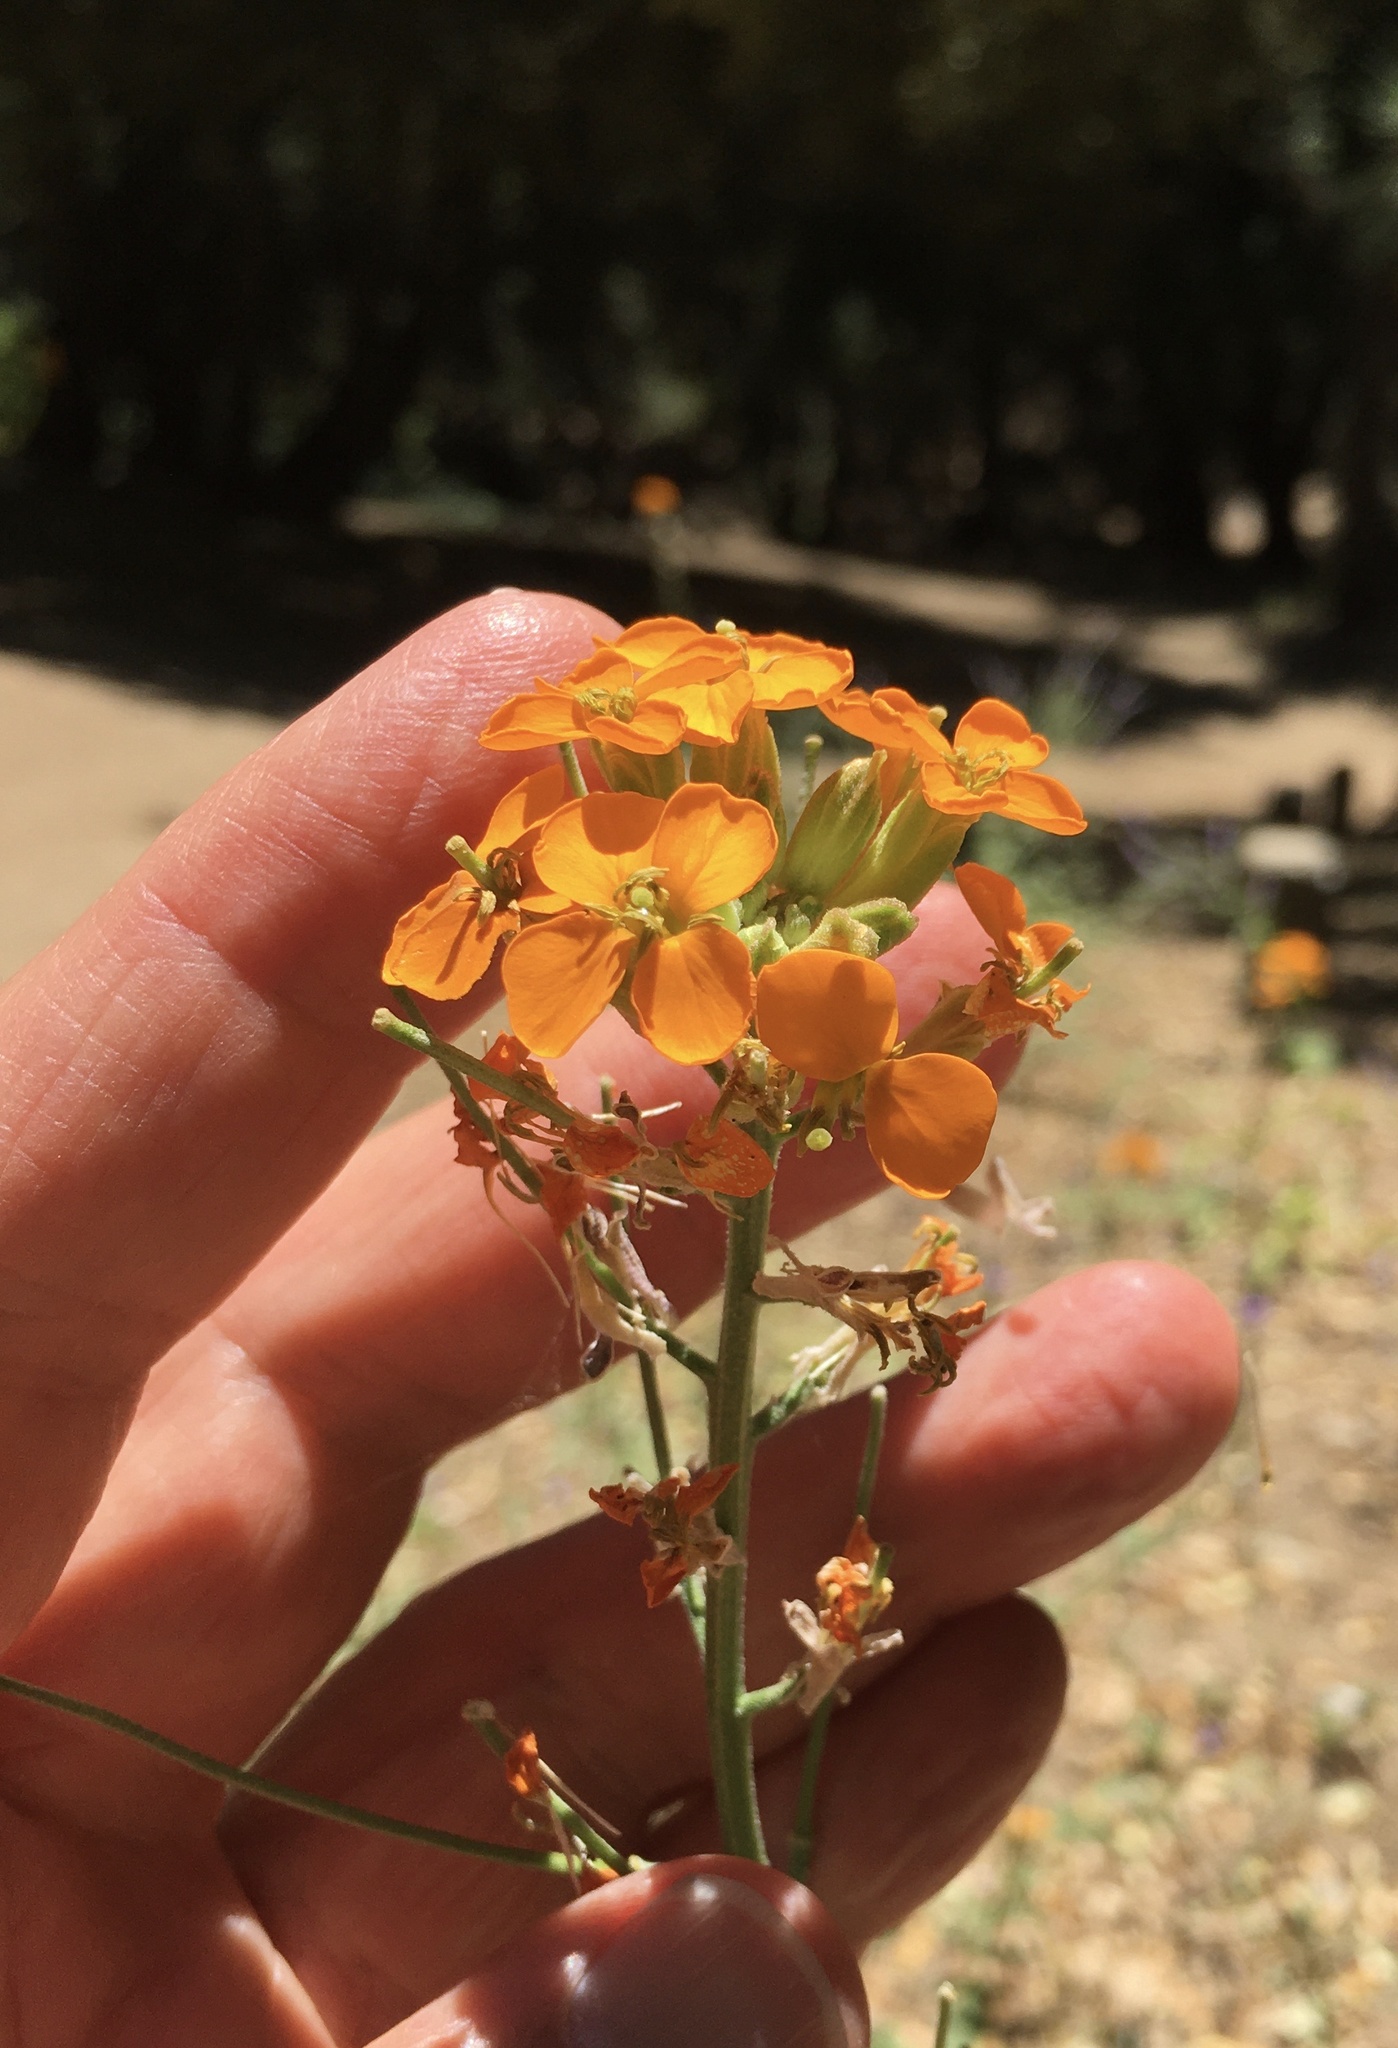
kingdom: Plantae
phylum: Tracheophyta
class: Magnoliopsida
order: Brassicales
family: Brassicaceae
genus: Erysimum
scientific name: Erysimum capitatum
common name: Western wallflower
